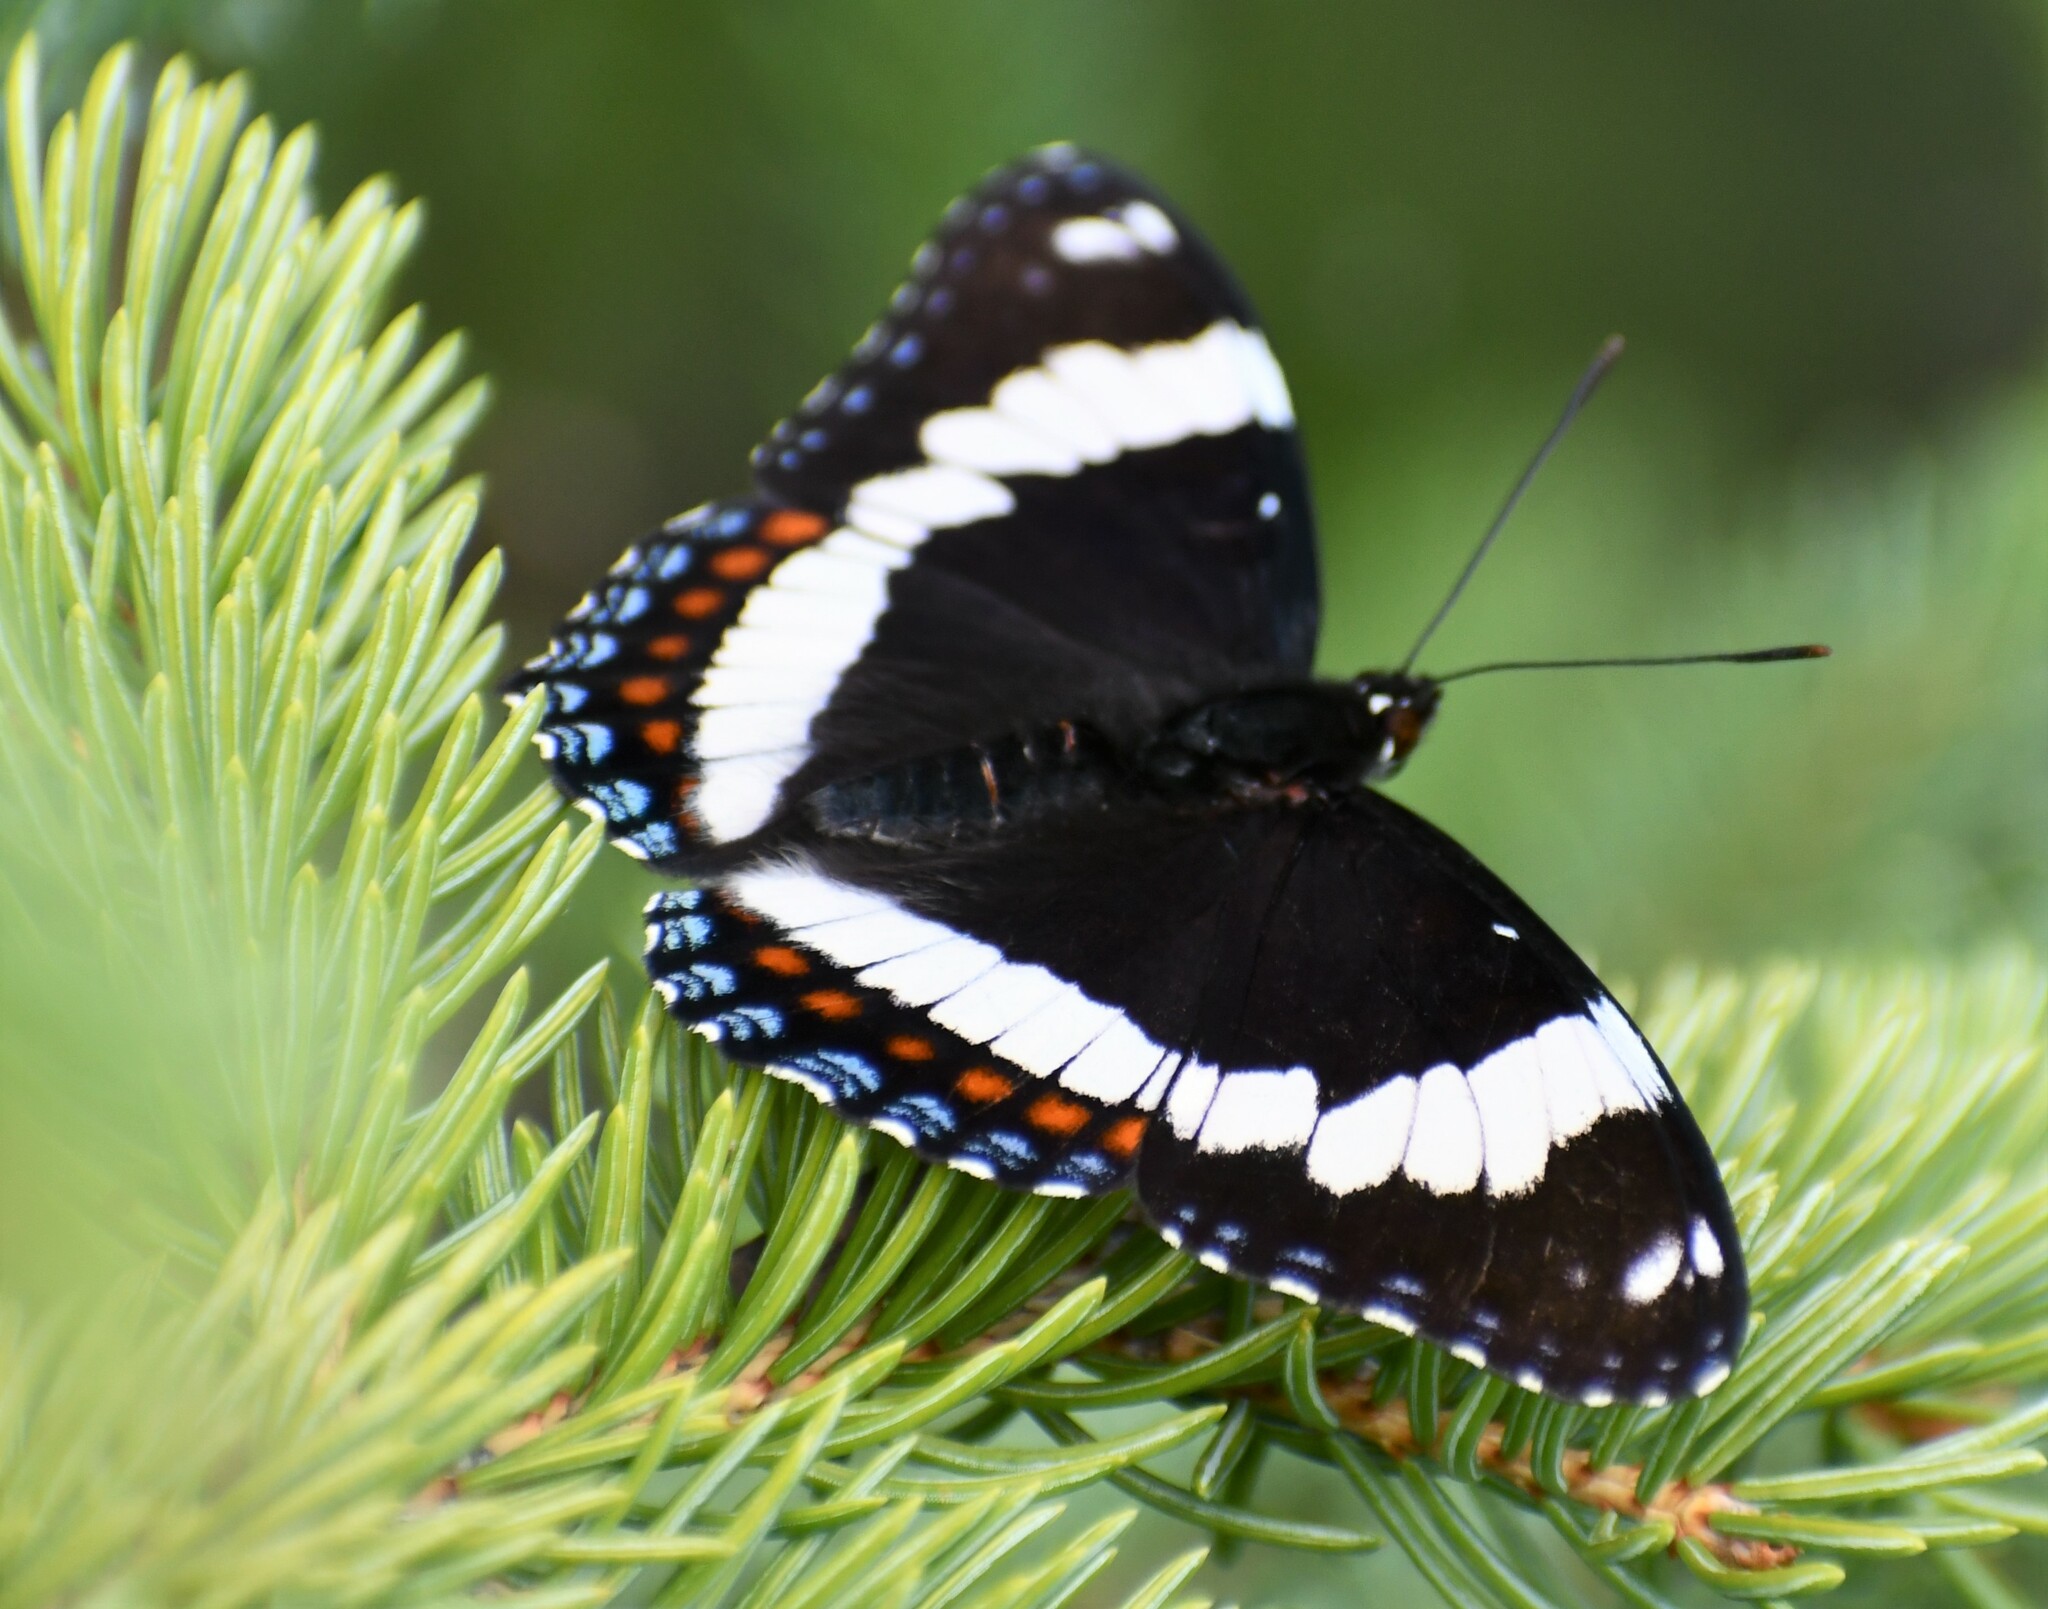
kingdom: Animalia
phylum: Arthropoda
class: Insecta
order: Lepidoptera
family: Nymphalidae
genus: Limenitis
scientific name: Limenitis arthemis
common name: Red-spotted admiral
